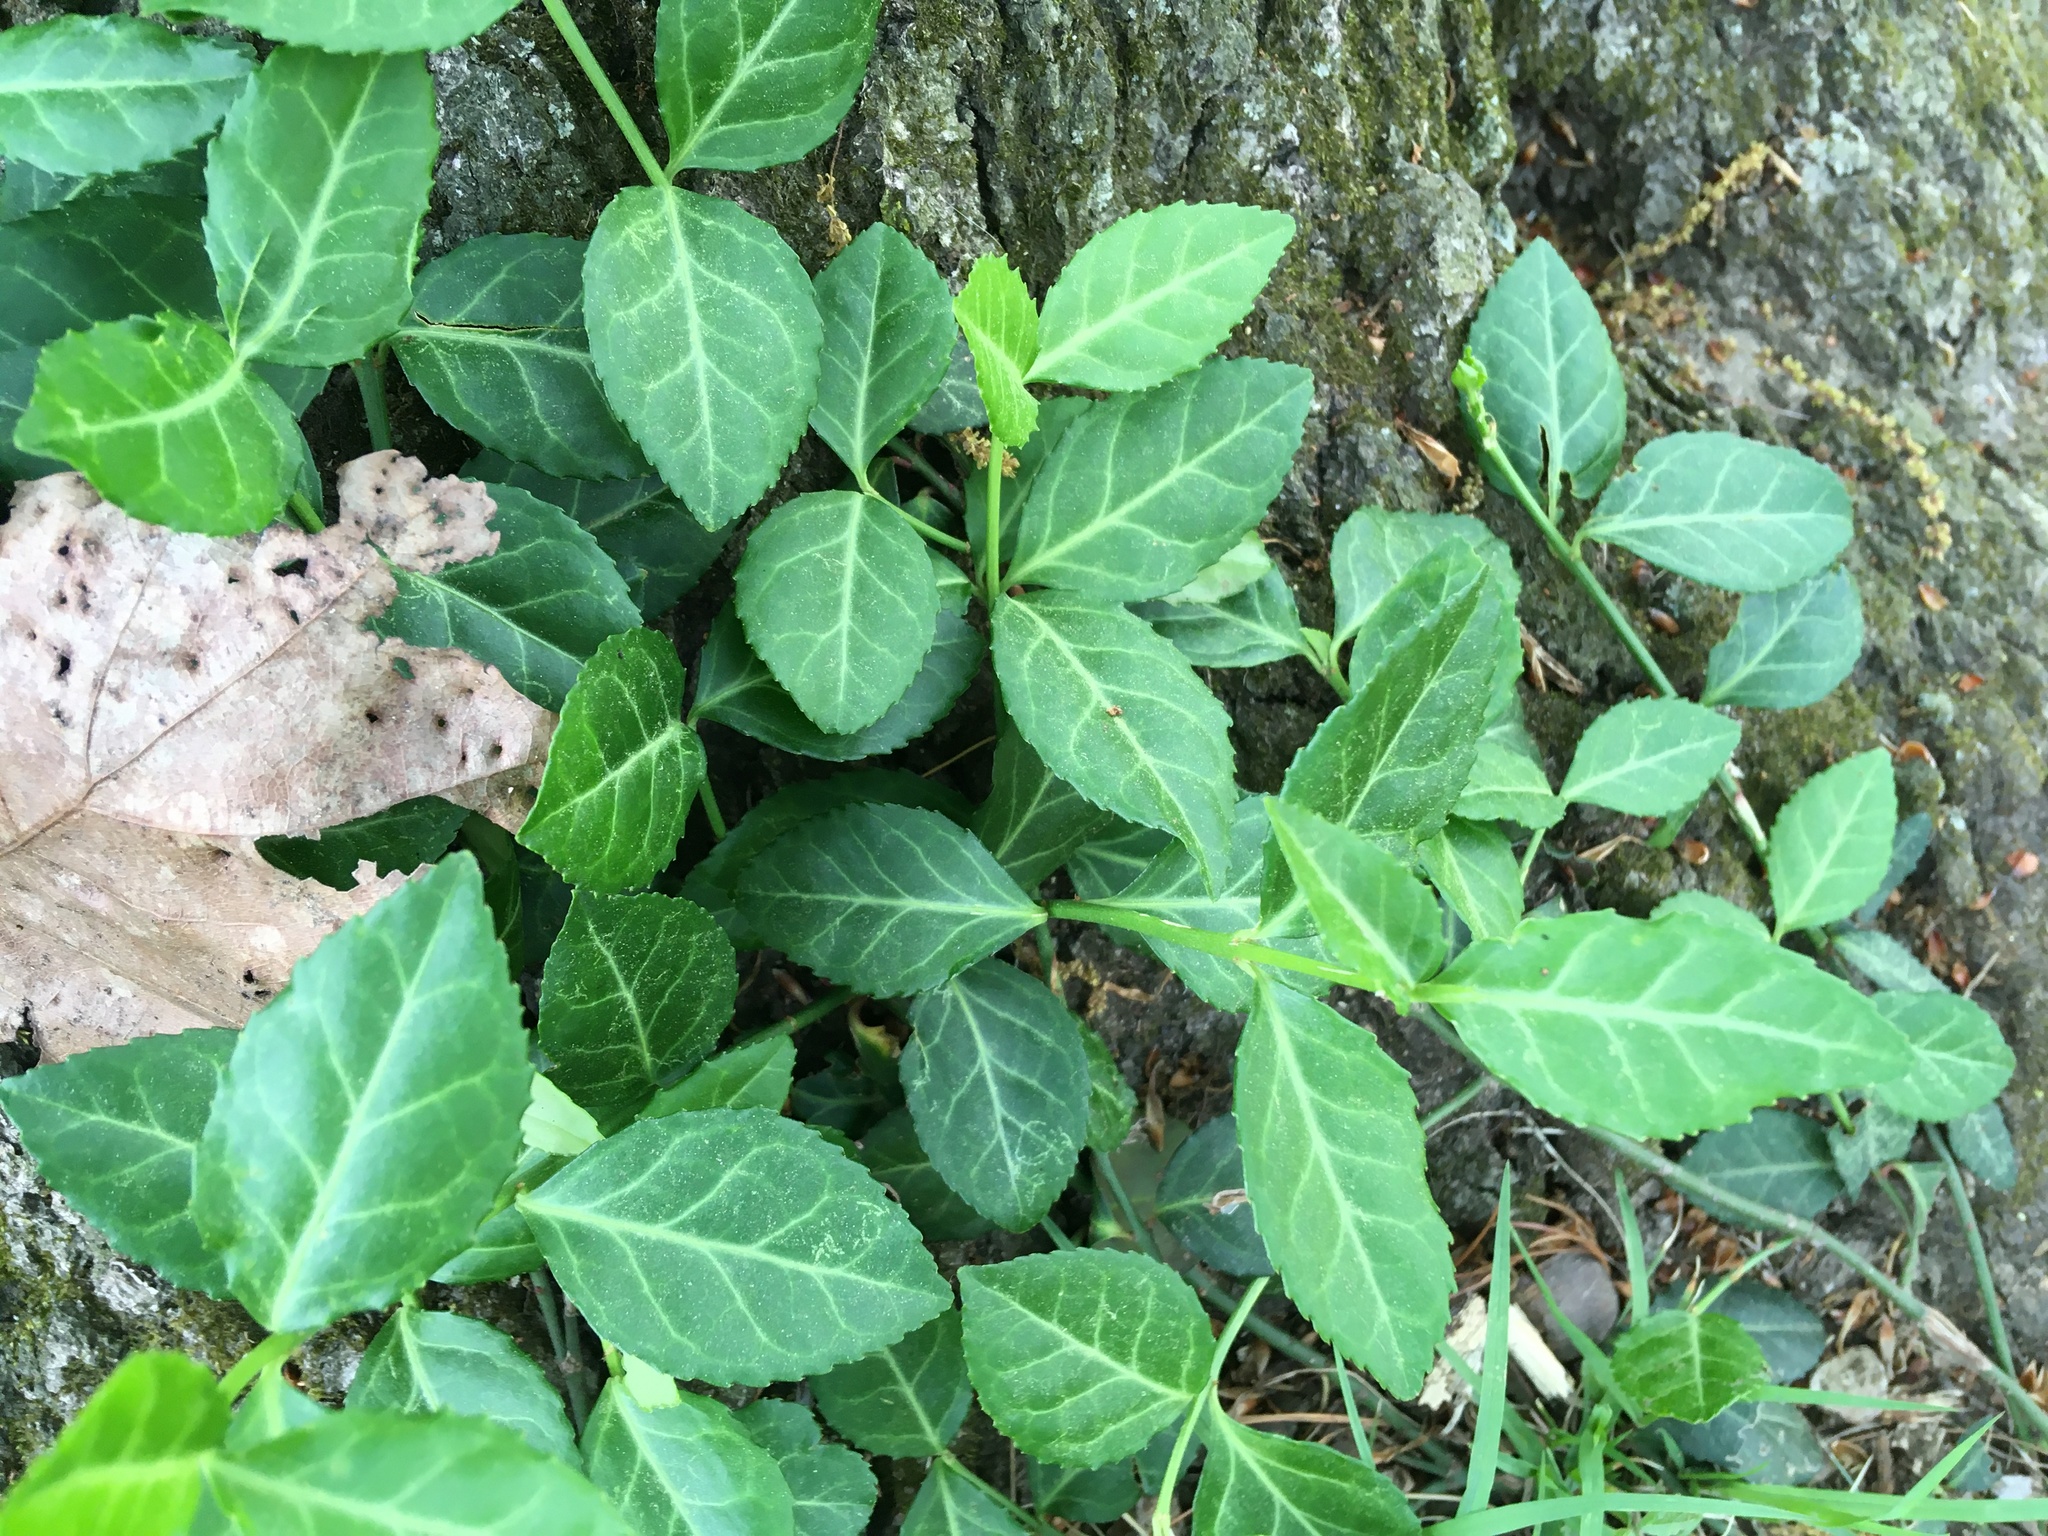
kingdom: Plantae
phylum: Tracheophyta
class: Magnoliopsida
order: Celastrales
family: Celastraceae
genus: Euonymus
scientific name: Euonymus fortunei
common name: Climbing euonymus
